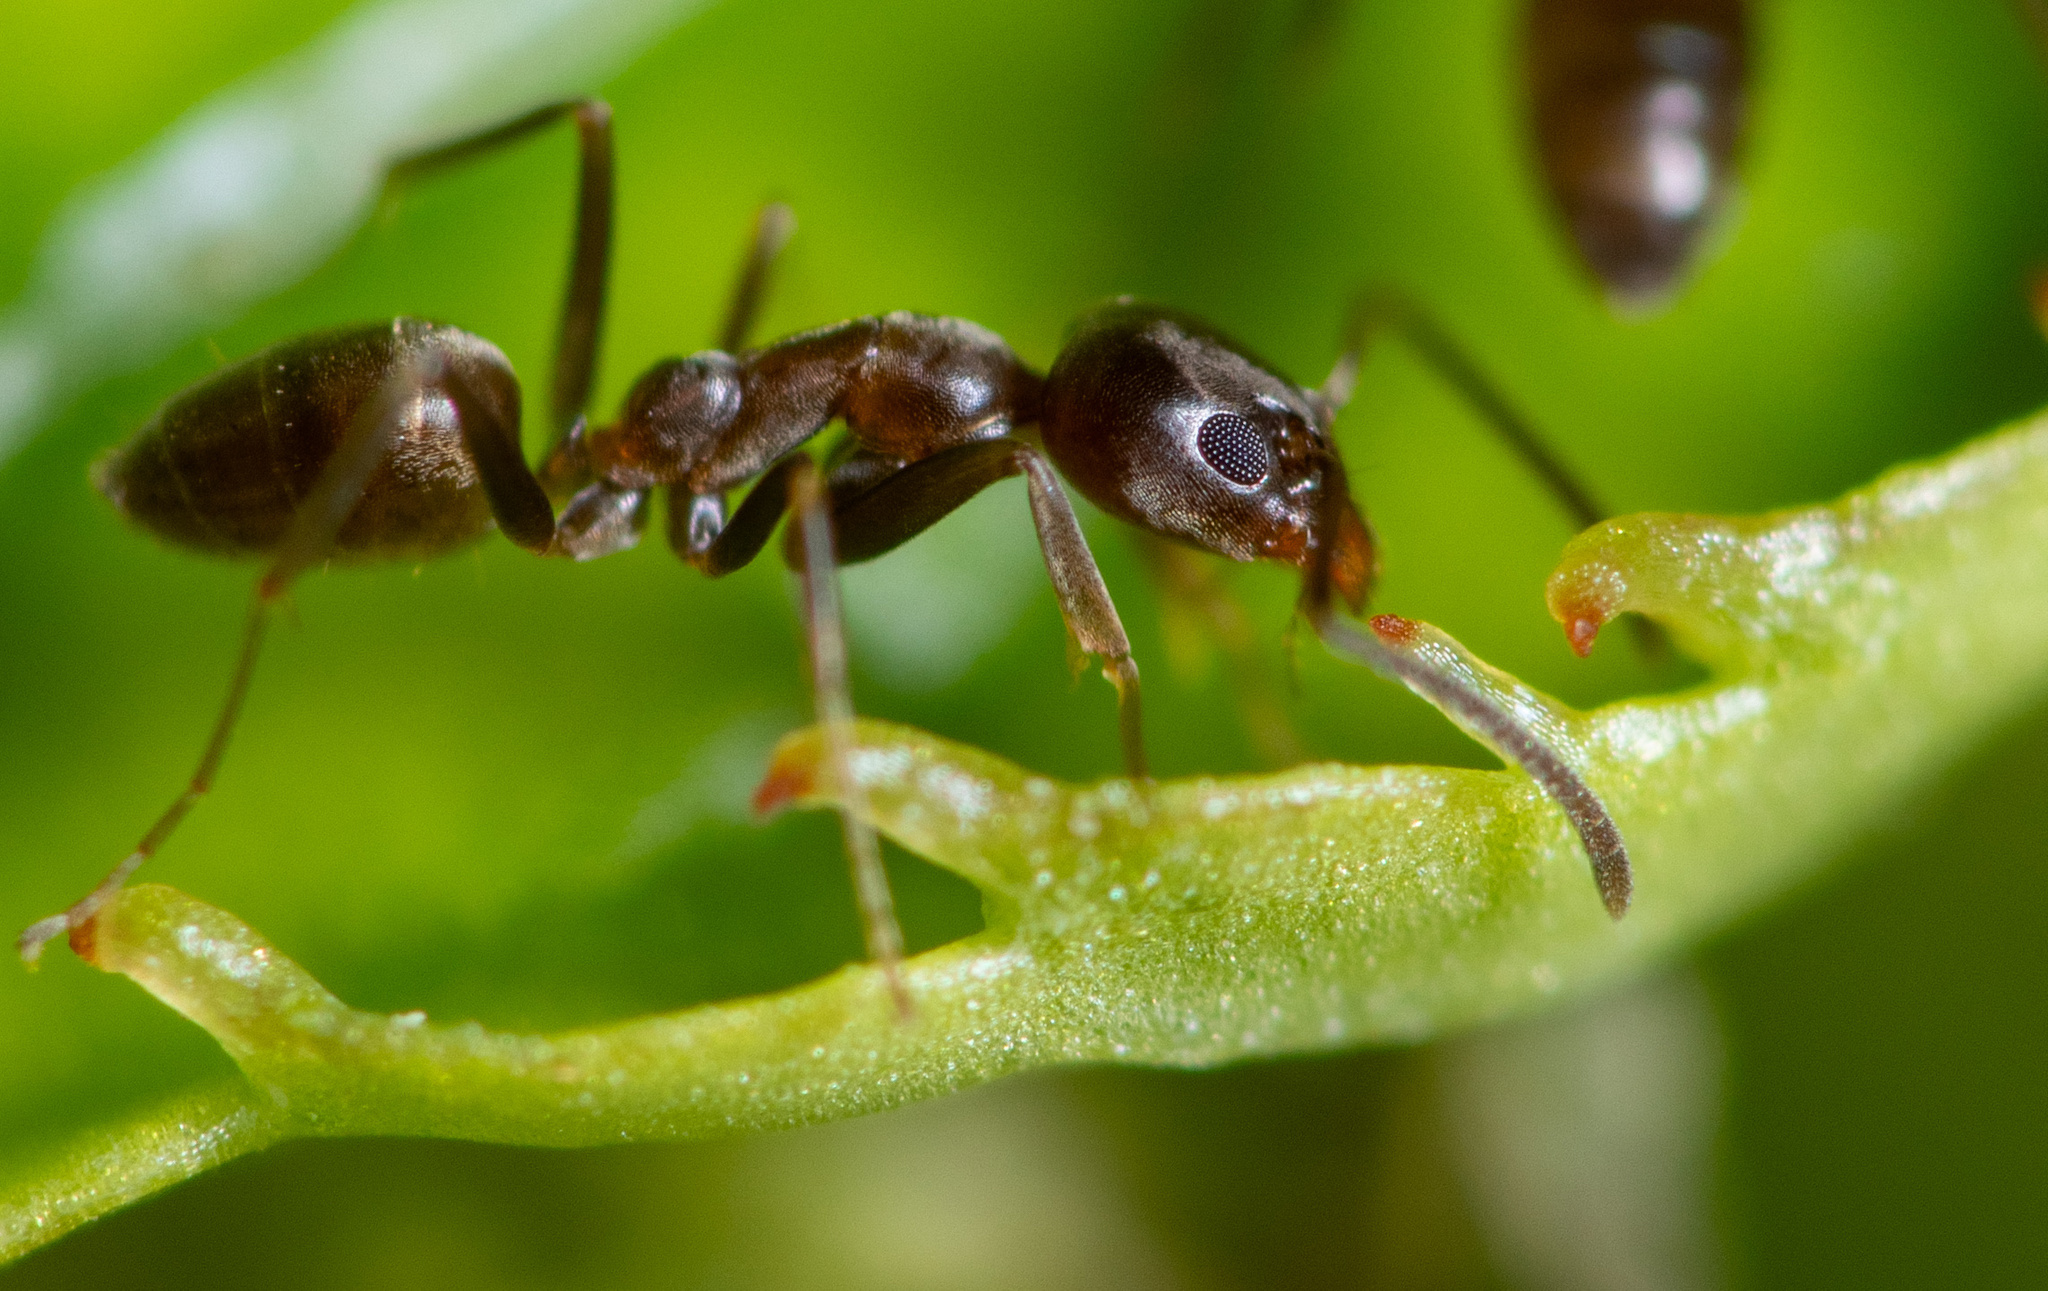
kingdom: Animalia
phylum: Arthropoda
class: Insecta
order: Hymenoptera
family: Formicidae
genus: Linepithema
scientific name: Linepithema humile
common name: Argentine ant
